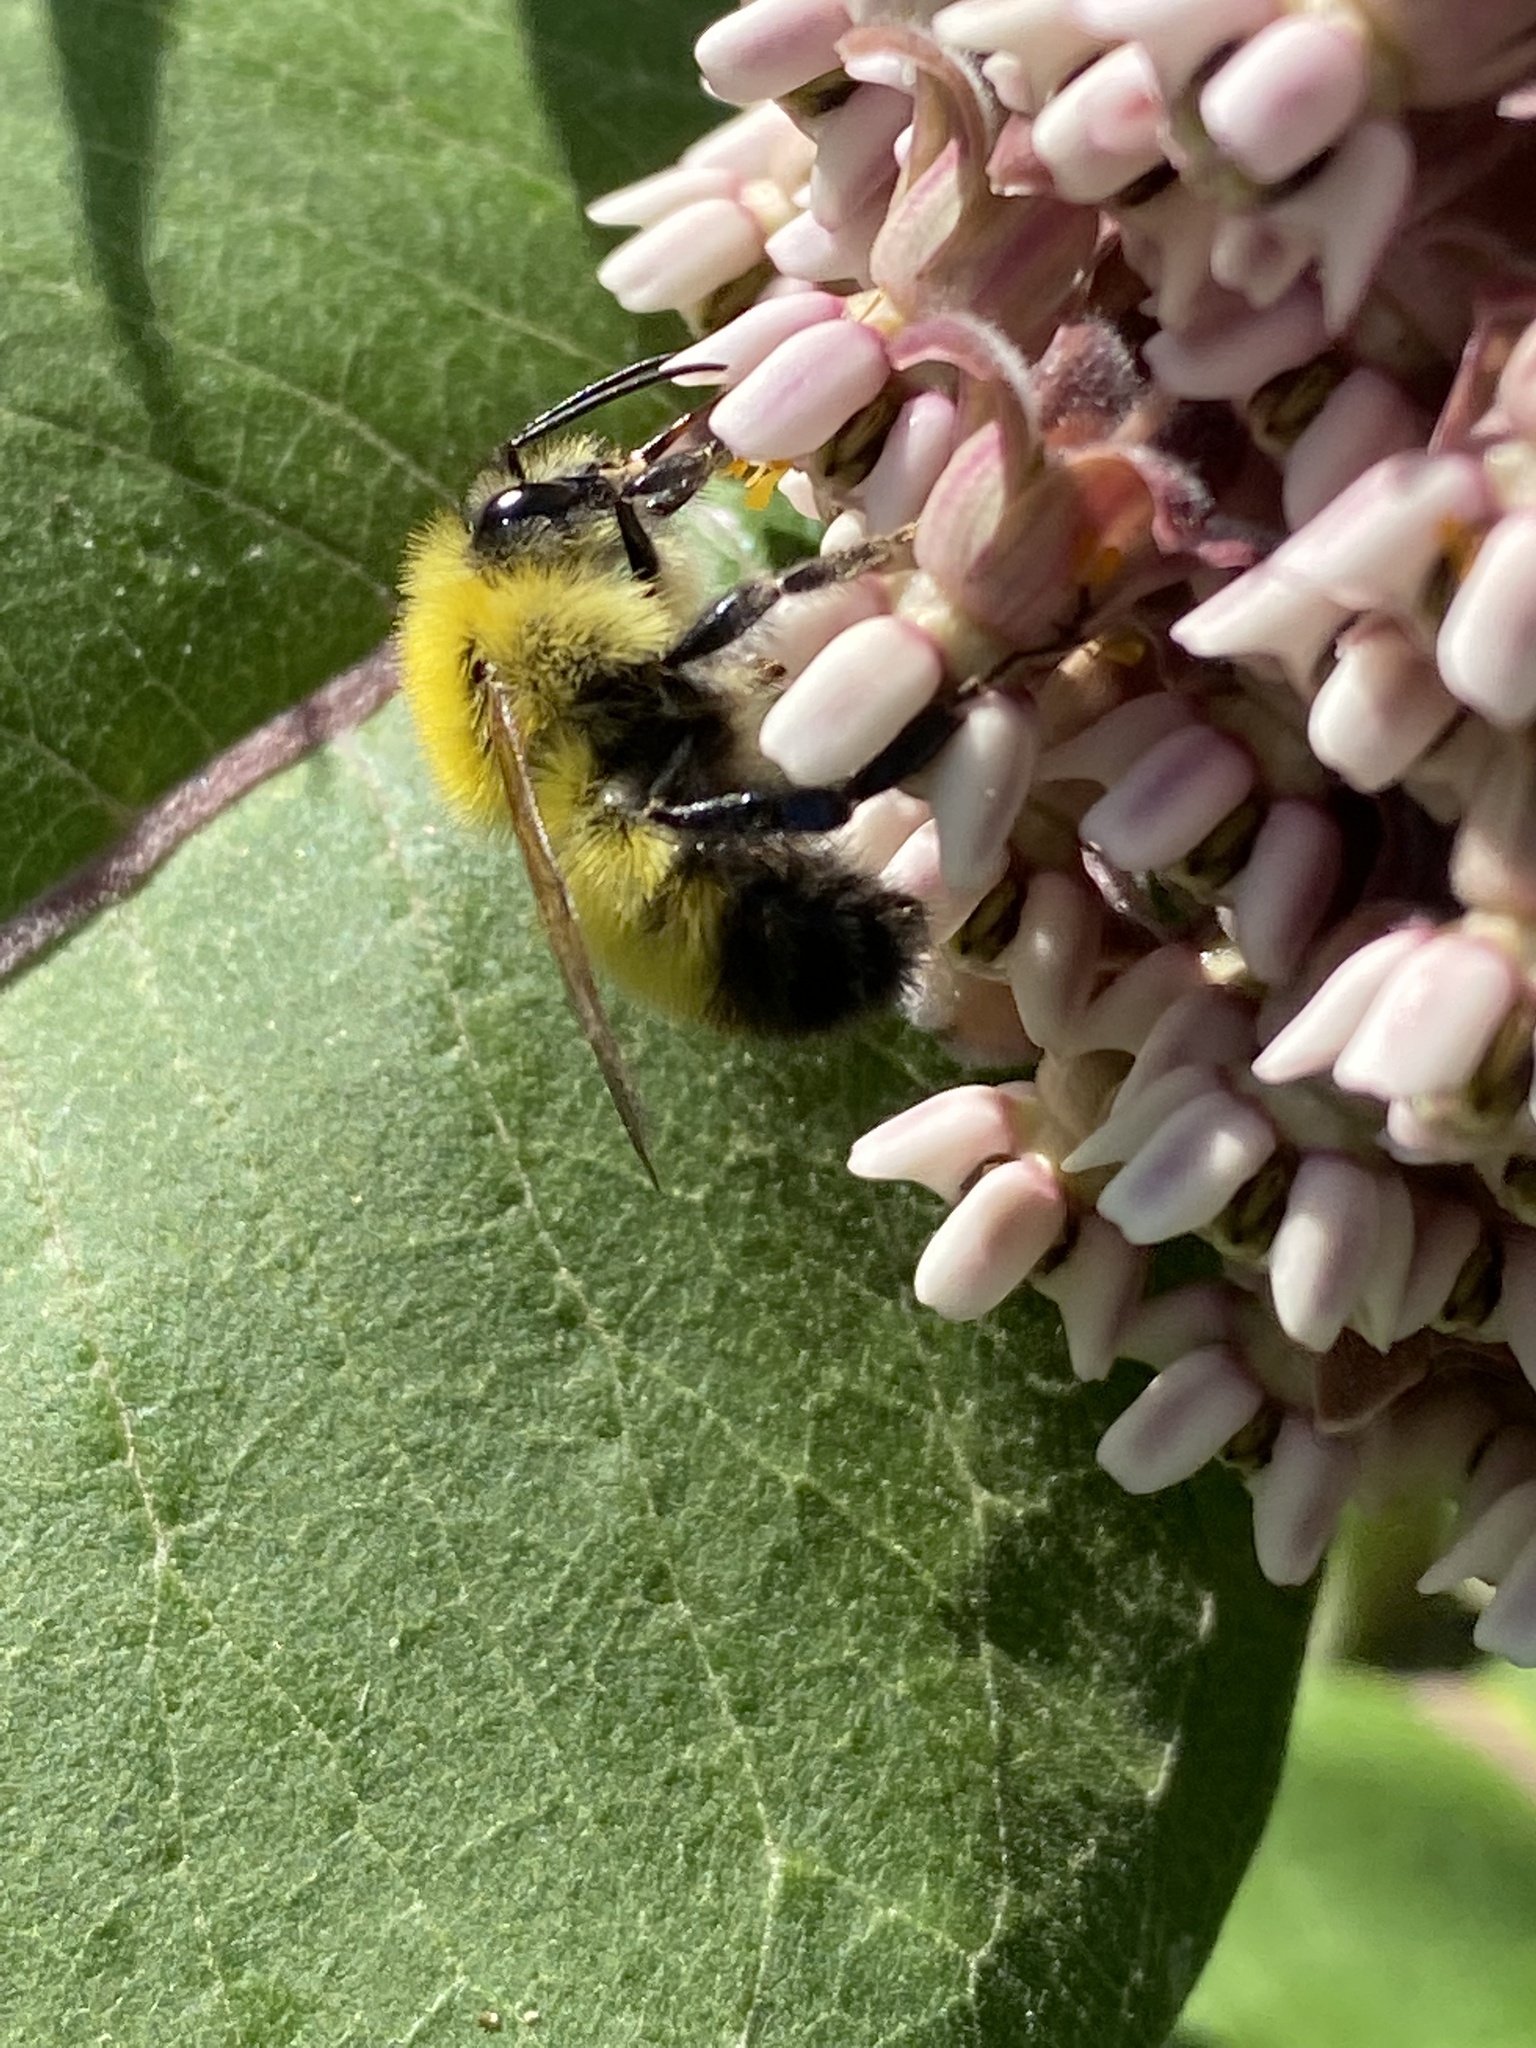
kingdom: Animalia
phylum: Arthropoda
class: Insecta
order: Hymenoptera
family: Apidae
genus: Bombus
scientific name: Bombus perplexus
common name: Confusing bumble bee
